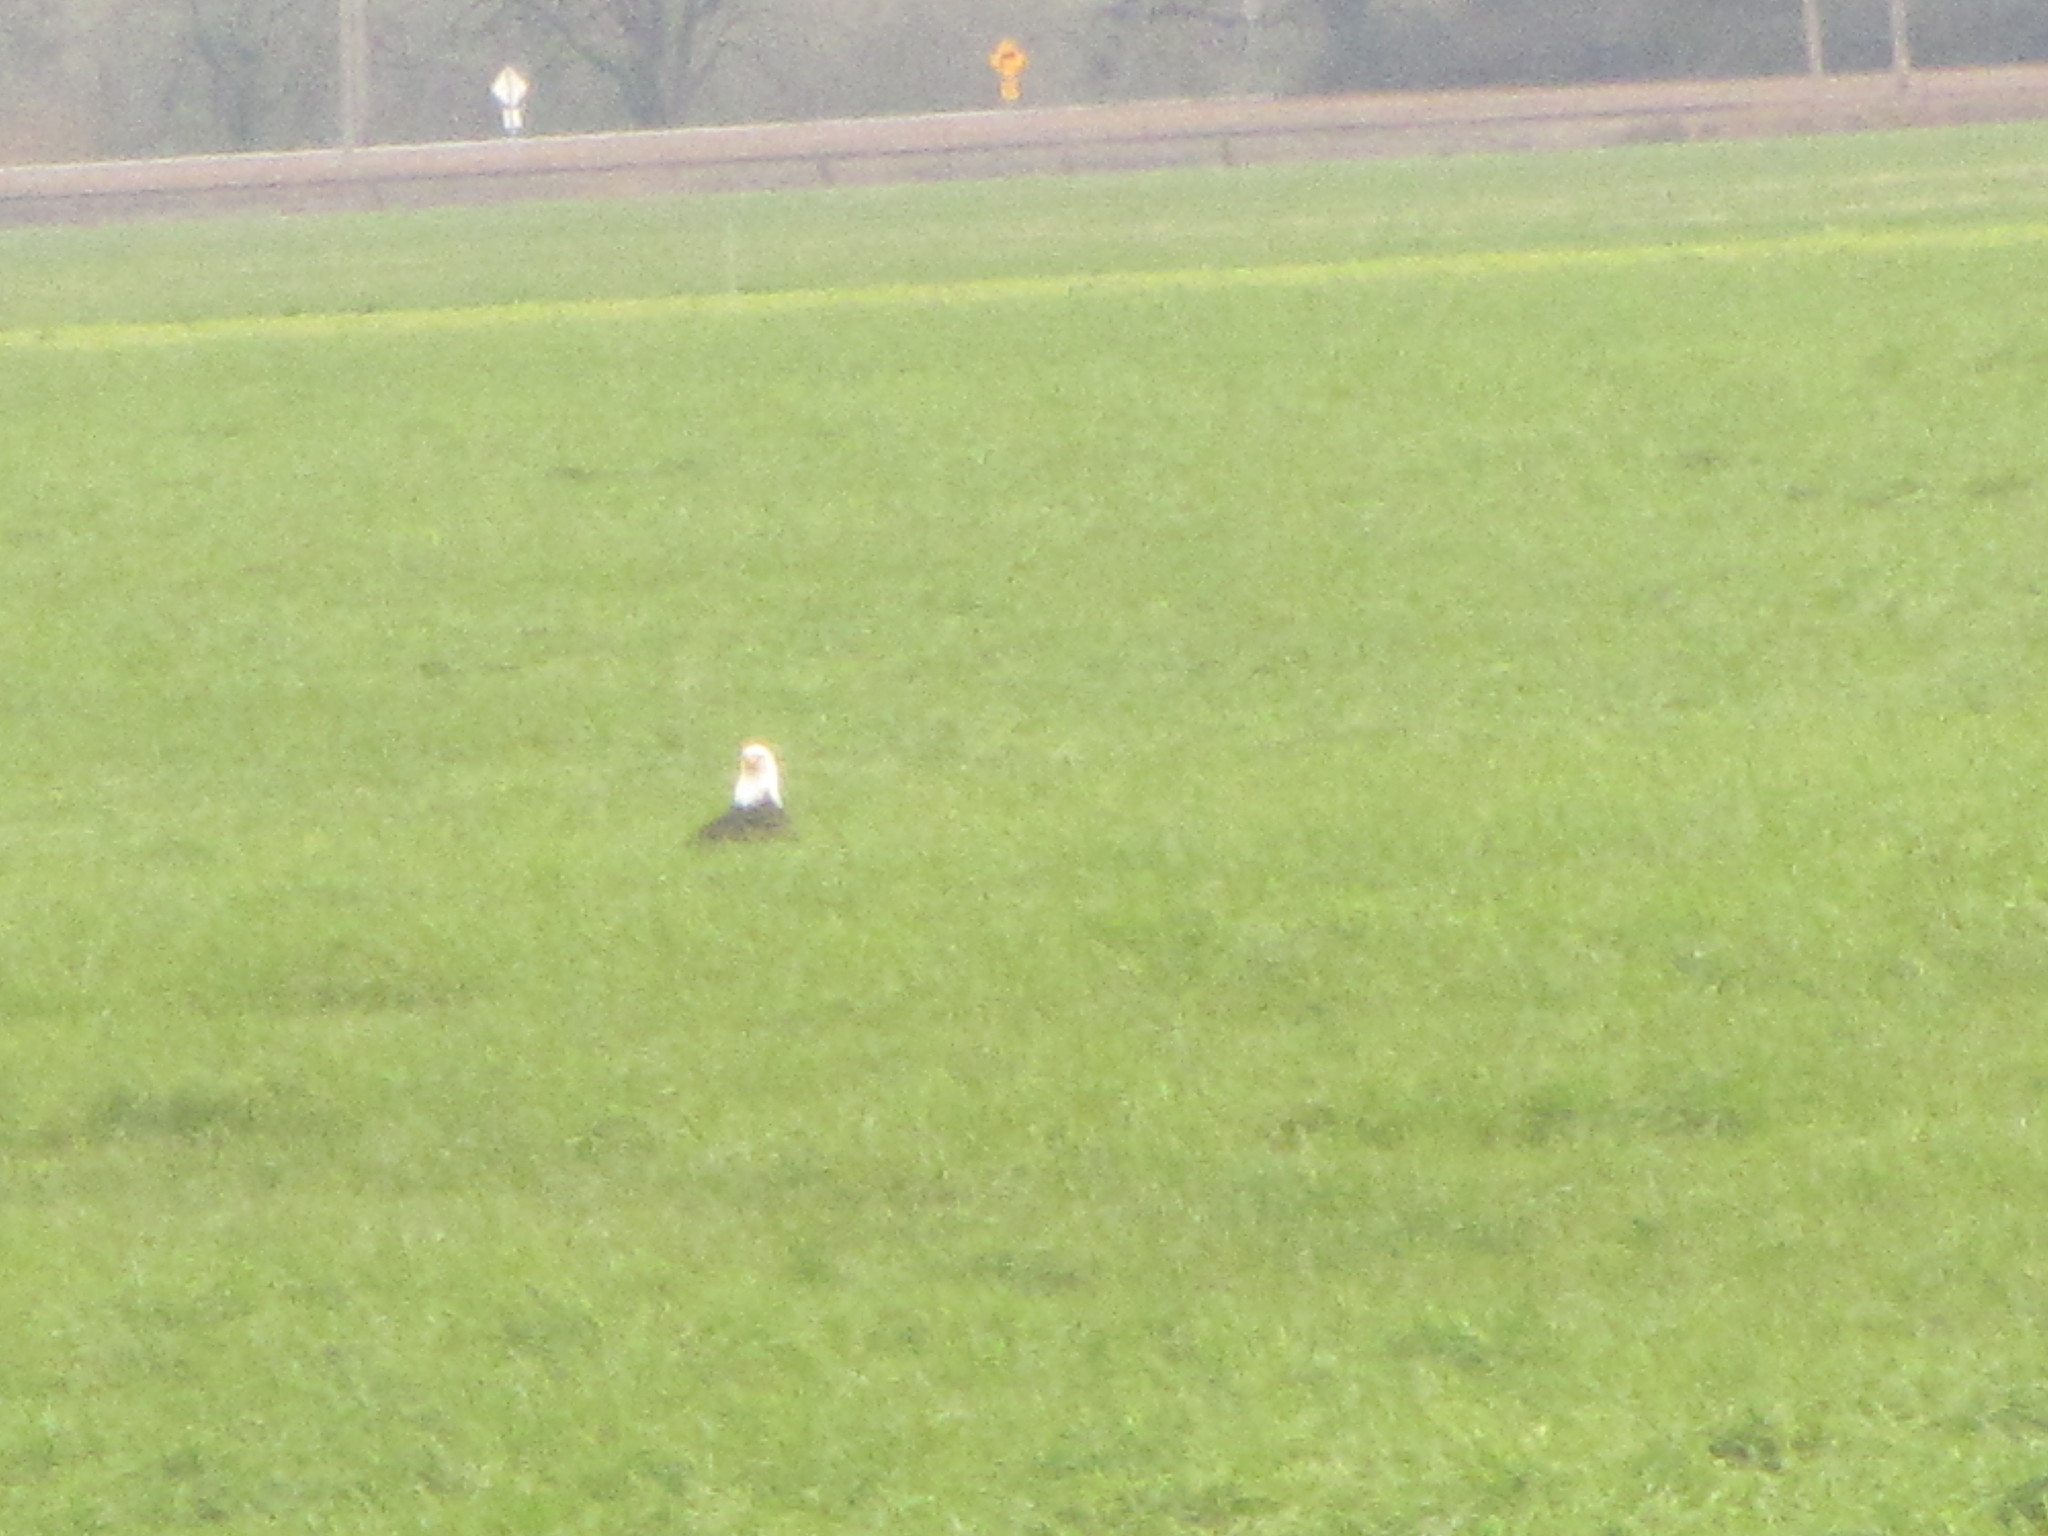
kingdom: Animalia
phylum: Chordata
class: Aves
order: Accipitriformes
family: Accipitridae
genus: Haliaeetus
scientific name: Haliaeetus leucocephalus
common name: Bald eagle
